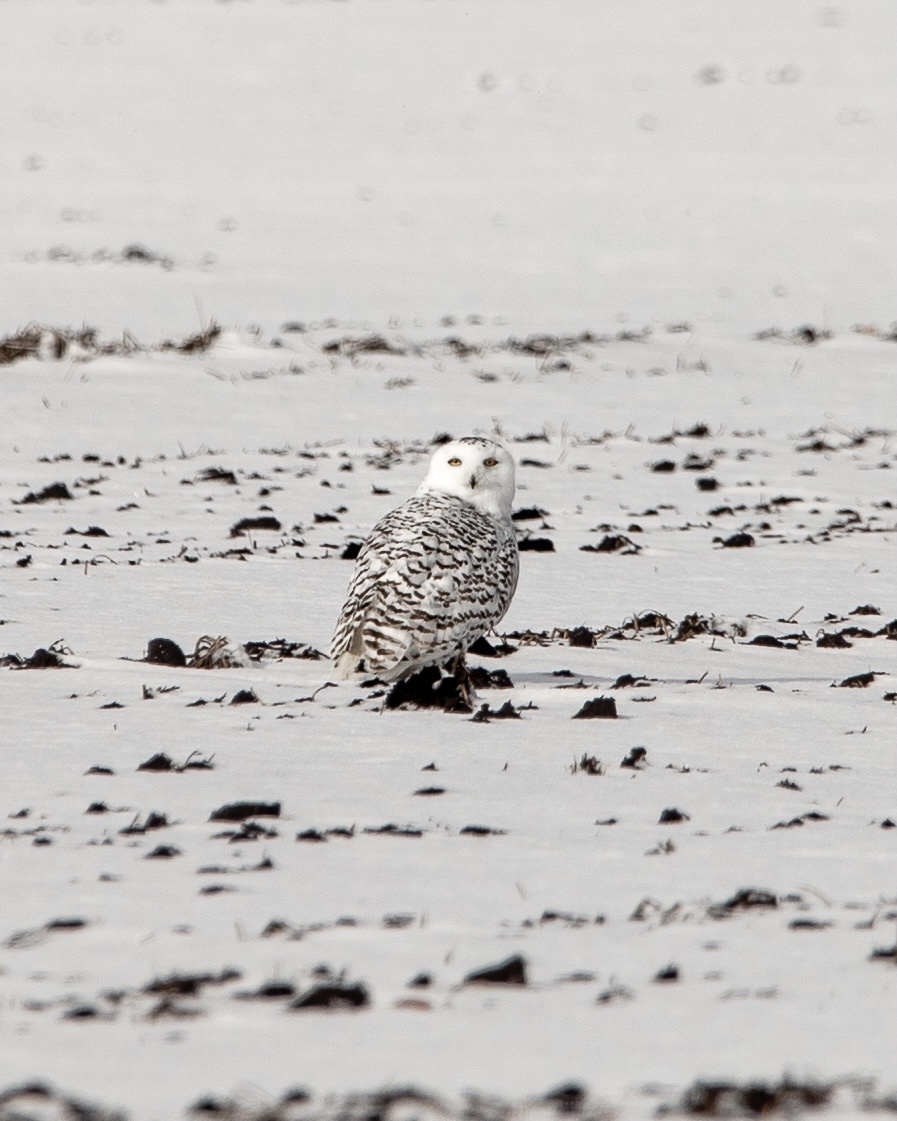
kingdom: Animalia
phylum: Chordata
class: Aves
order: Strigiformes
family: Strigidae
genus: Bubo
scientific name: Bubo scandiacus
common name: Snowy owl
